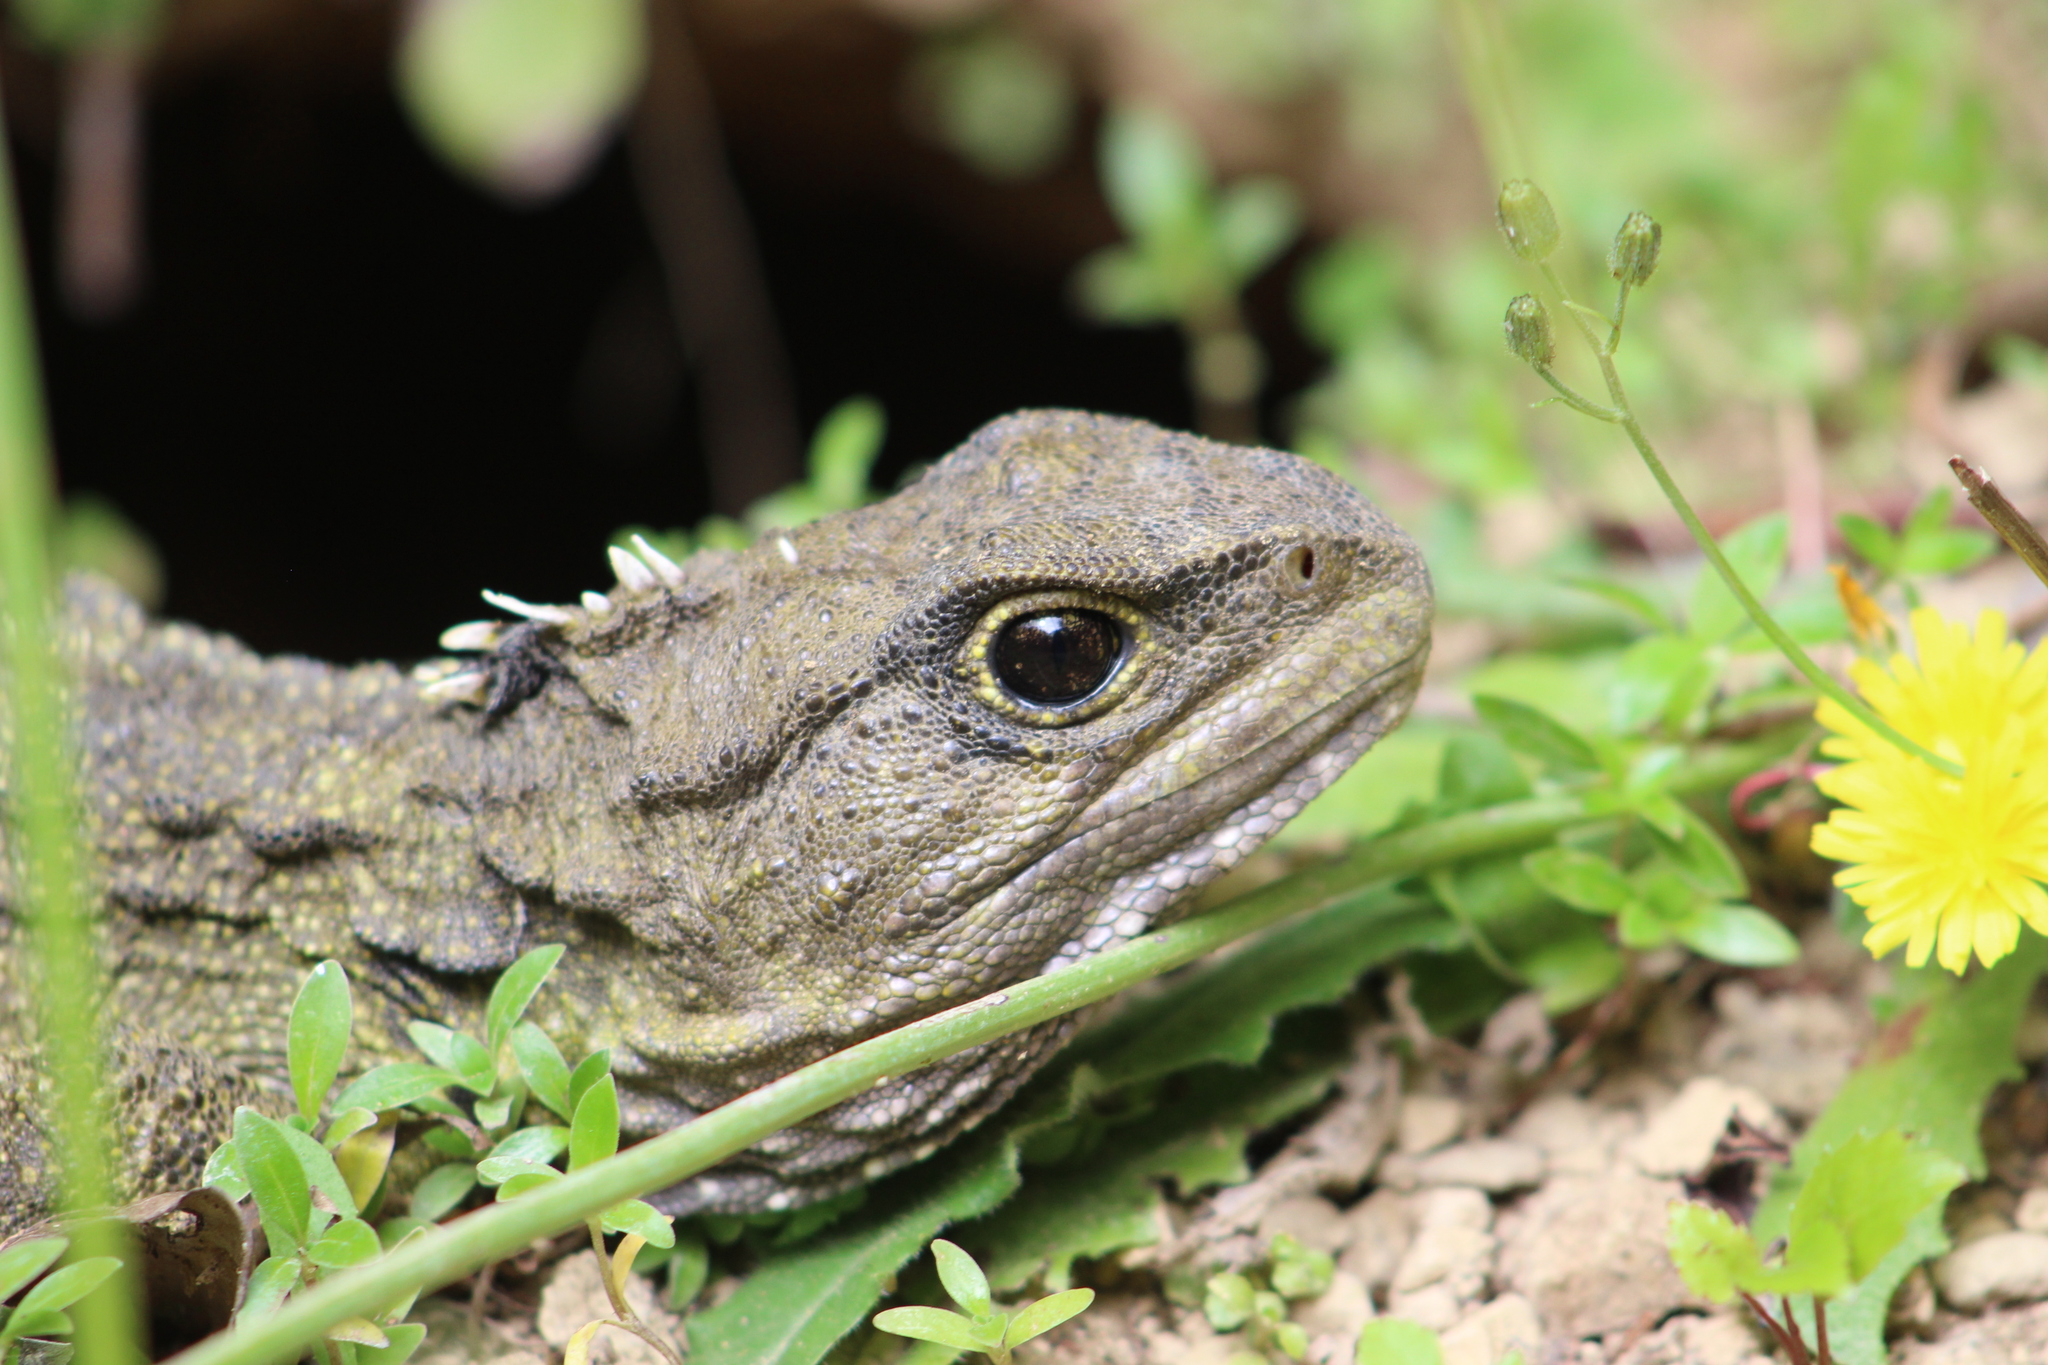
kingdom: Animalia
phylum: Chordata
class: Sphenodontia
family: Sphenodontidae
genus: Sphenodon
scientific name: Sphenodon punctatus
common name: Tuatara
